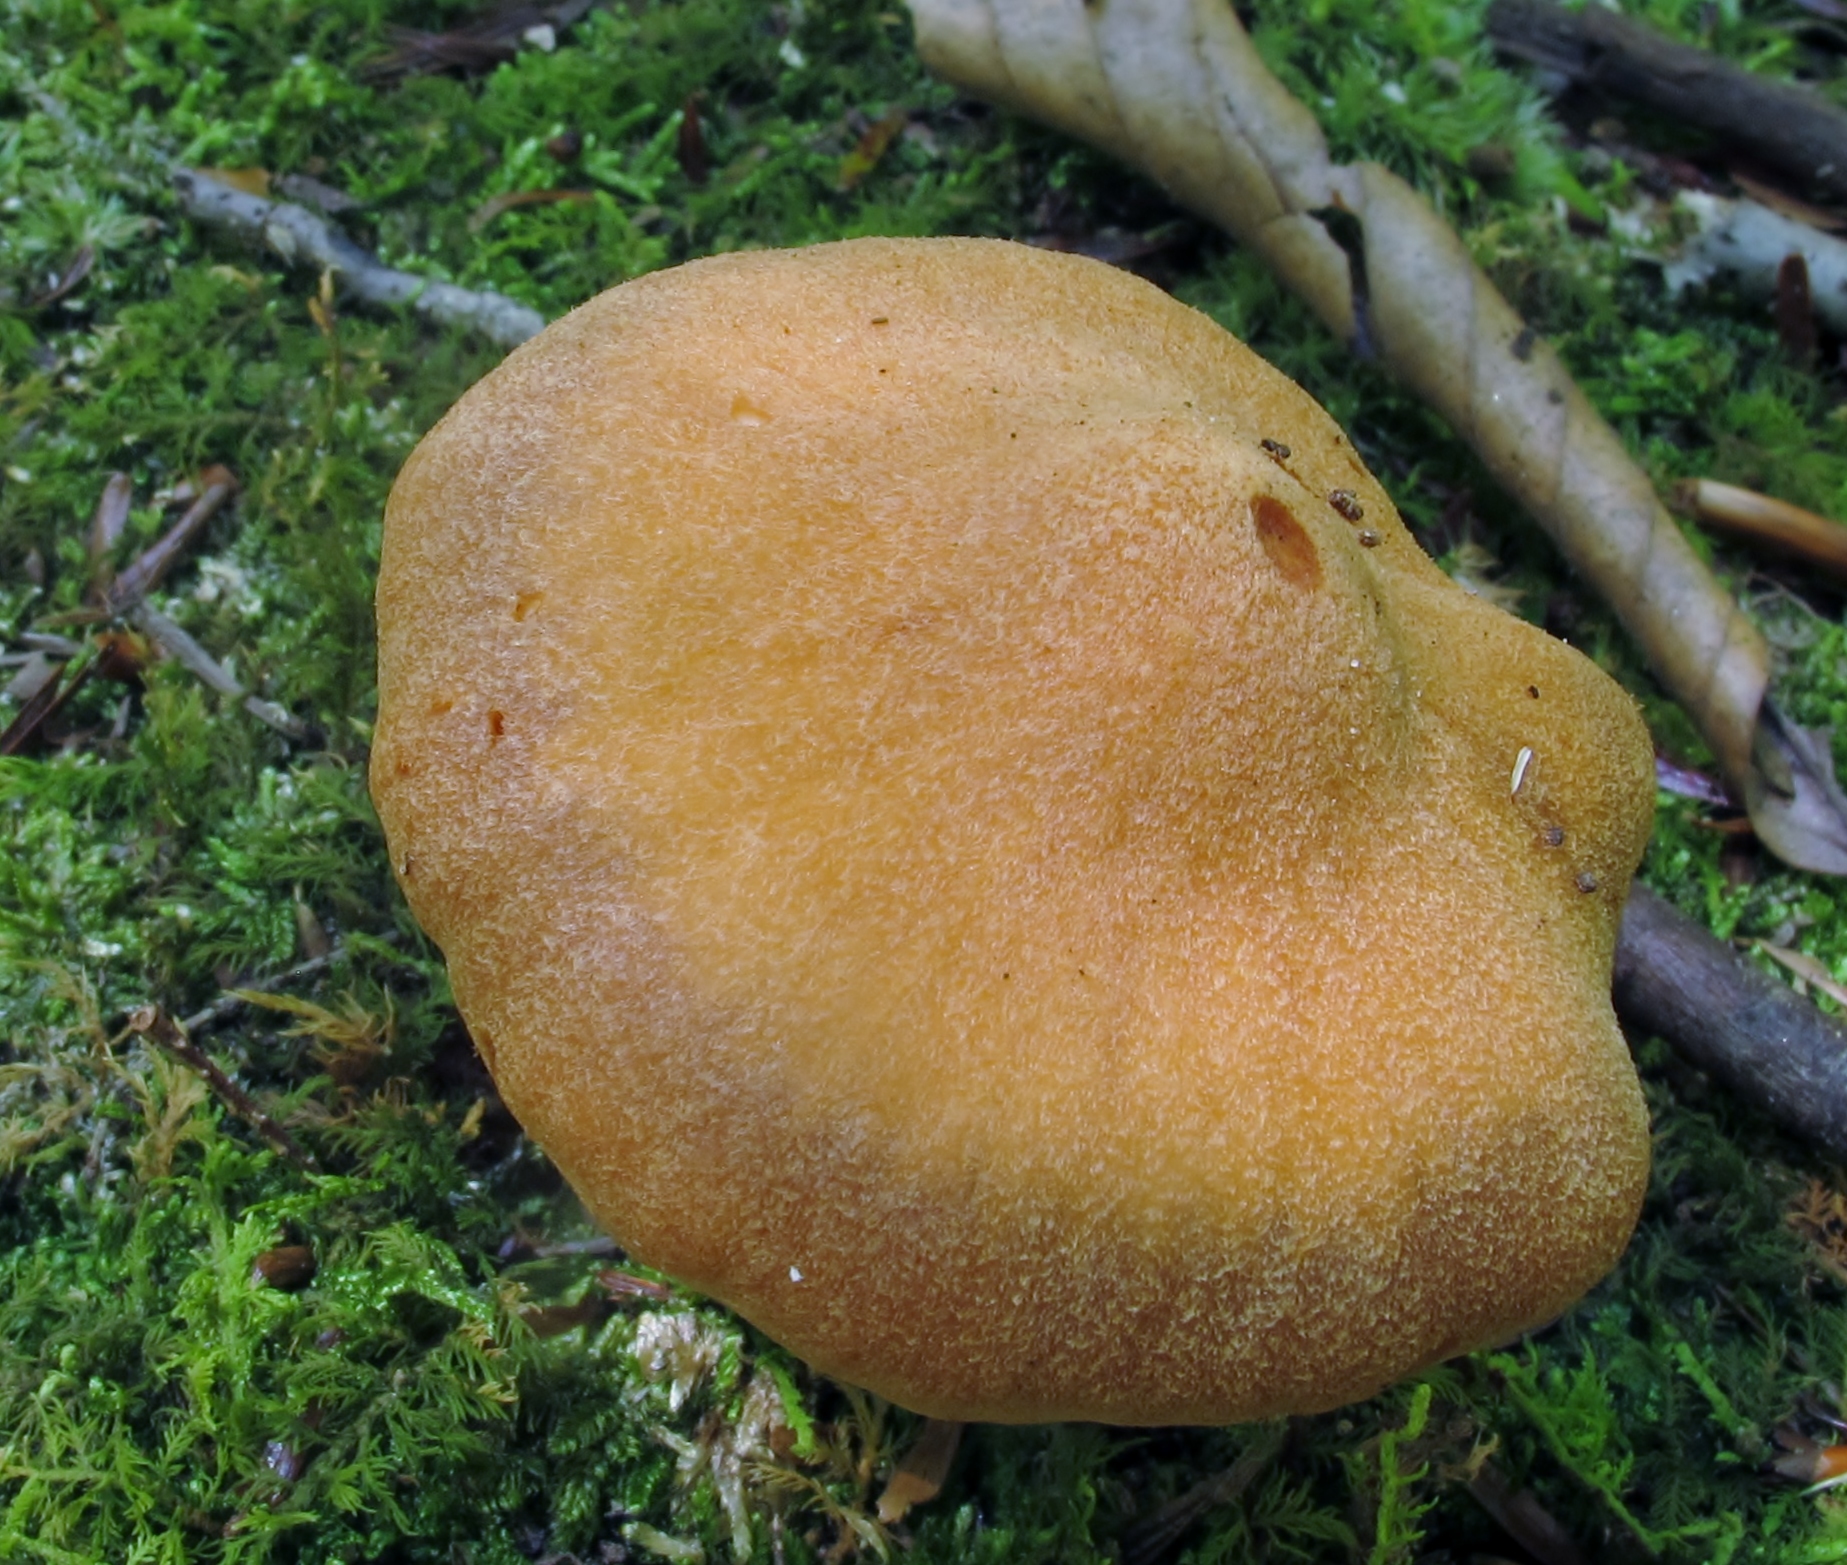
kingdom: Fungi
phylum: Basidiomycota
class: Agaricomycetes
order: Agaricales
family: Cortinariaceae
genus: Cortinarius
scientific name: Cortinarius
